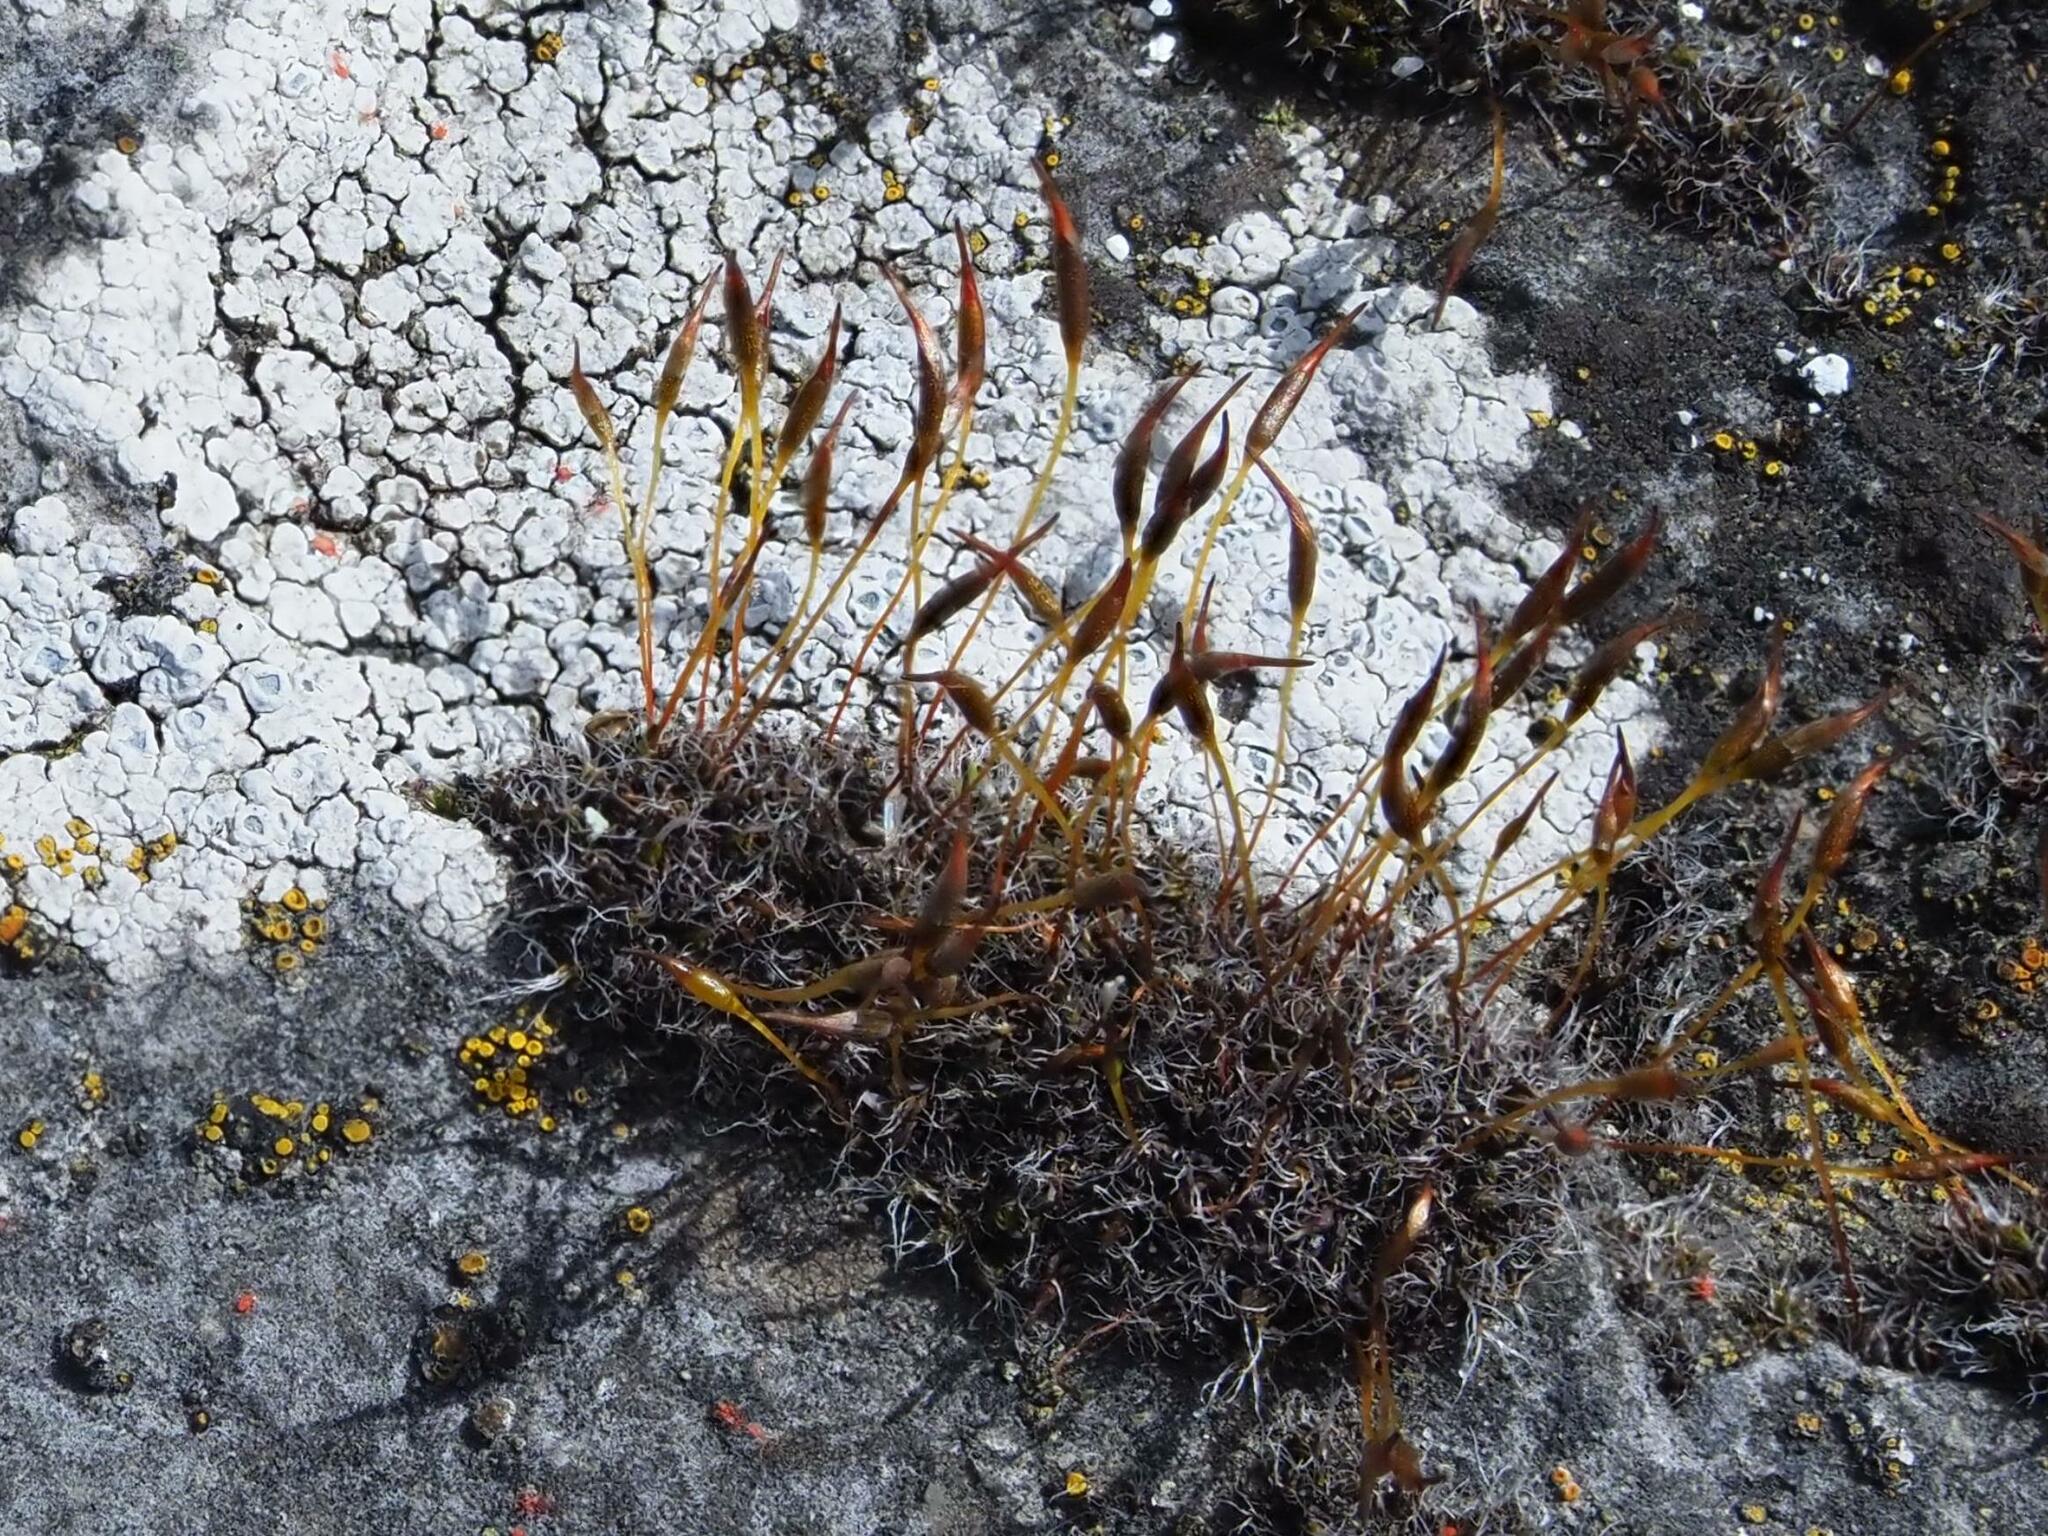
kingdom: Plantae
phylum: Bryophyta
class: Bryopsida
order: Pottiales
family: Pottiaceae
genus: Tortula
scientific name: Tortula muralis
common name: Wall screw-moss
